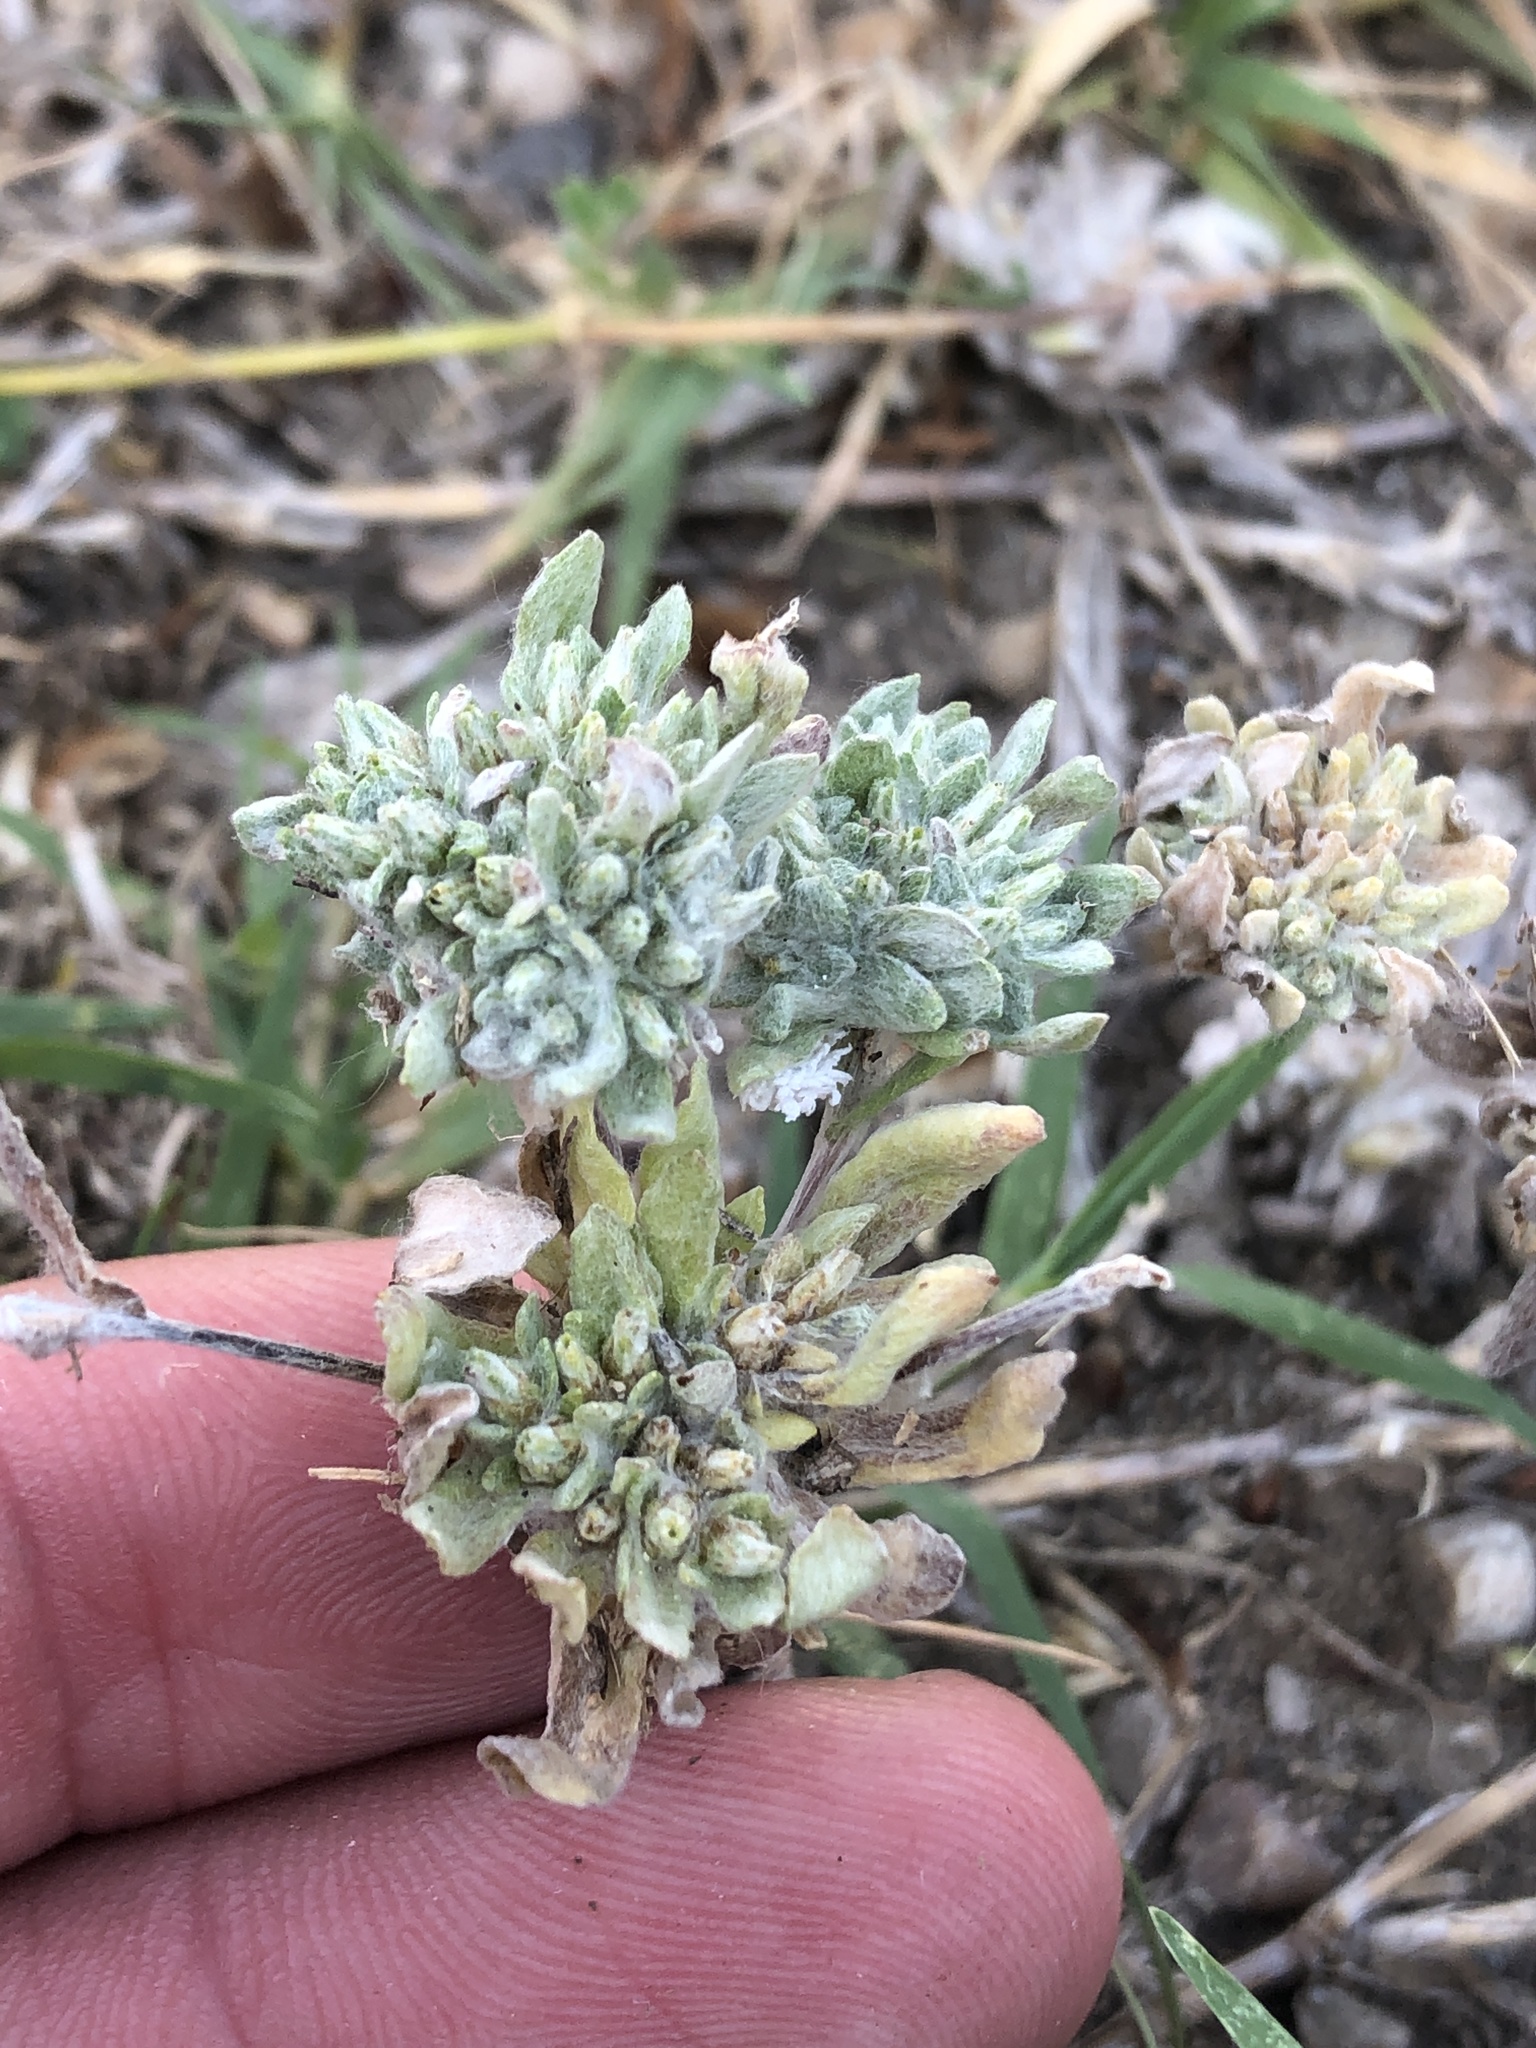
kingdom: Plantae
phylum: Tracheophyta
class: Magnoliopsida
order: Asterales
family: Asteraceae
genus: Diaperia
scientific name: Diaperia prolifera
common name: Big-head rabbit-tobacco
